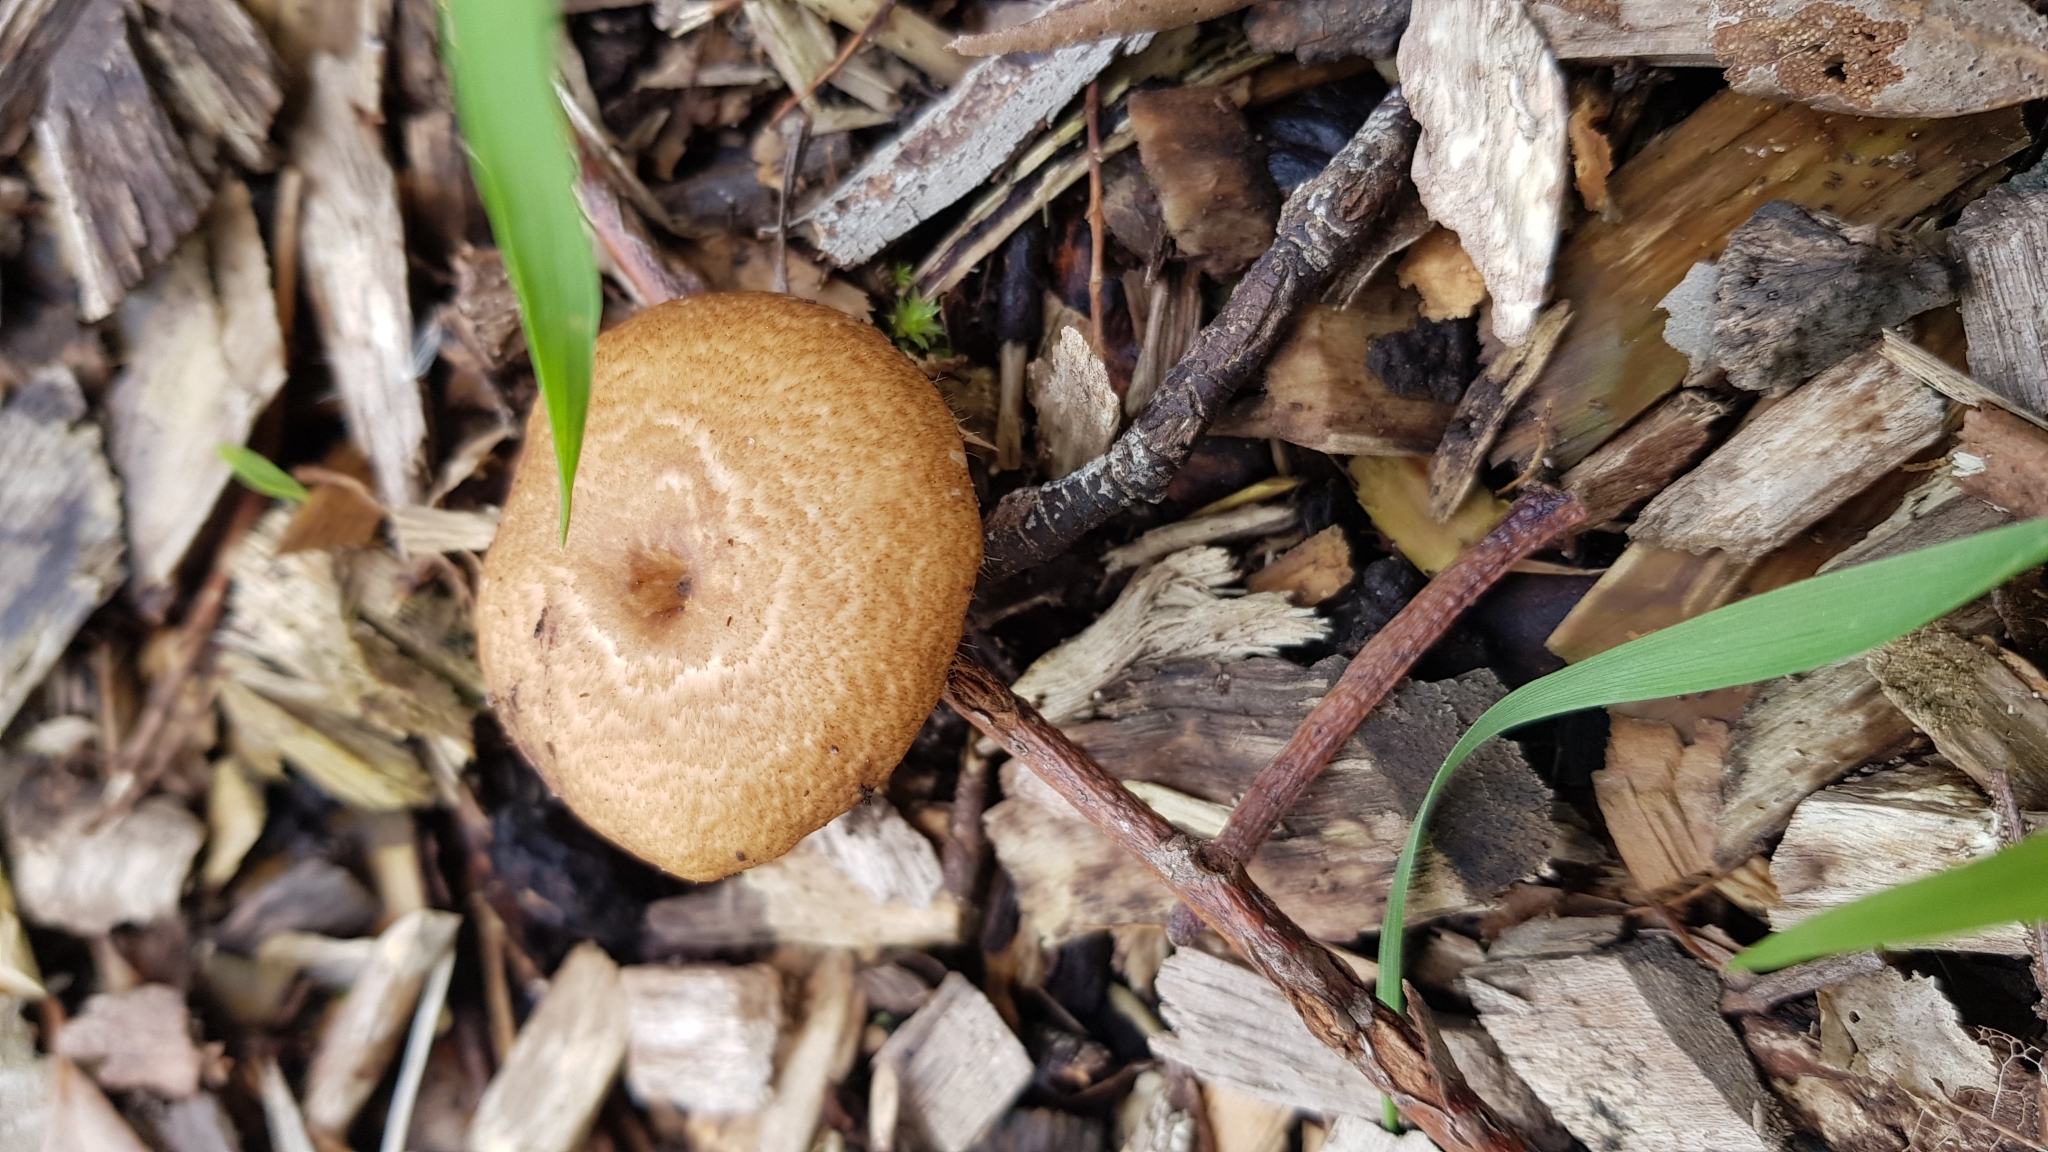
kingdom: Fungi
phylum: Basidiomycota
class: Agaricomycetes
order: Polyporales
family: Polyporaceae
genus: Lentinus
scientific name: Lentinus arcularius
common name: Spring polypore
